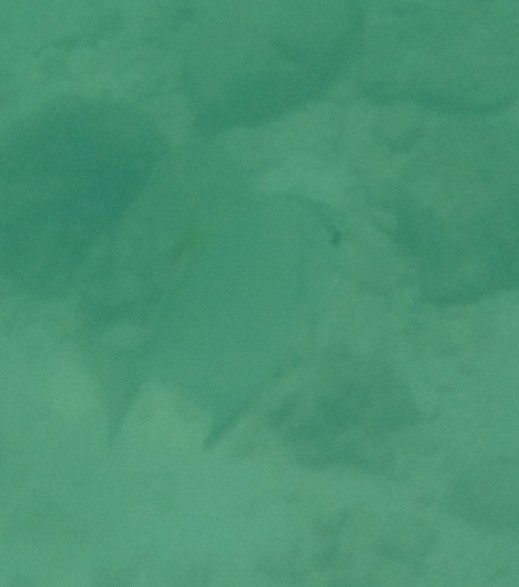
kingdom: Animalia
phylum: Chordata
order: Perciformes
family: Monodactylidae
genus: Monodactylus
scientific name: Monodactylus argenteus
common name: Silver moony
